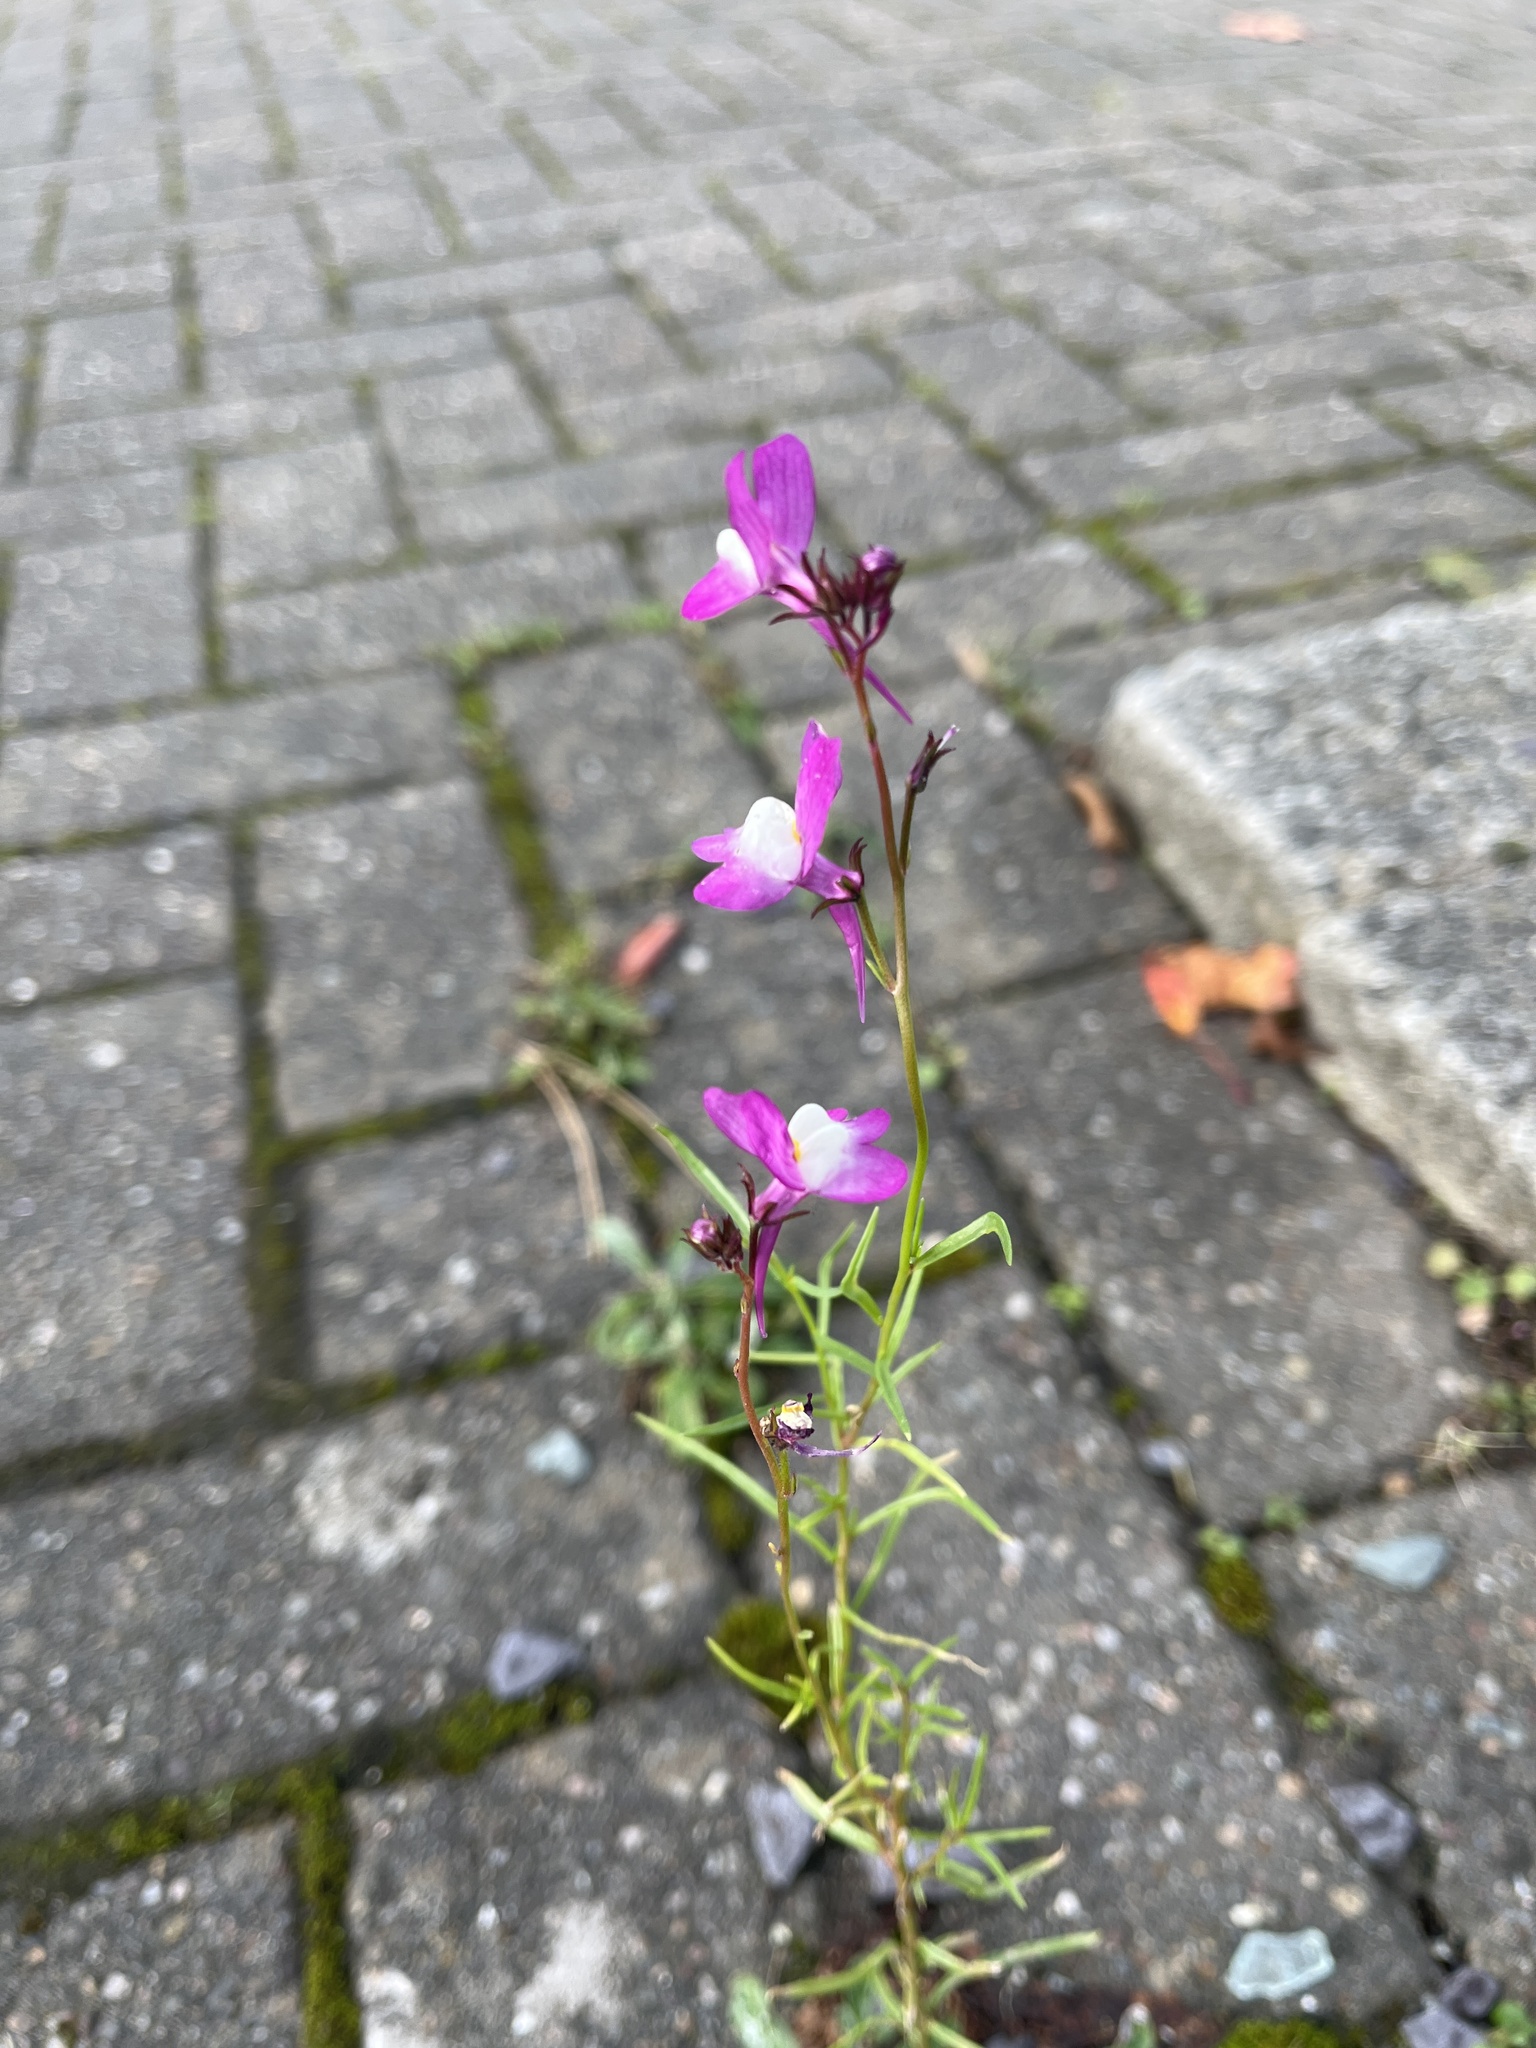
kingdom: Plantae
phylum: Tracheophyta
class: Magnoliopsida
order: Lamiales
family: Plantaginaceae
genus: Linaria
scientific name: Linaria maroccana
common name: Moroccan toadflax
